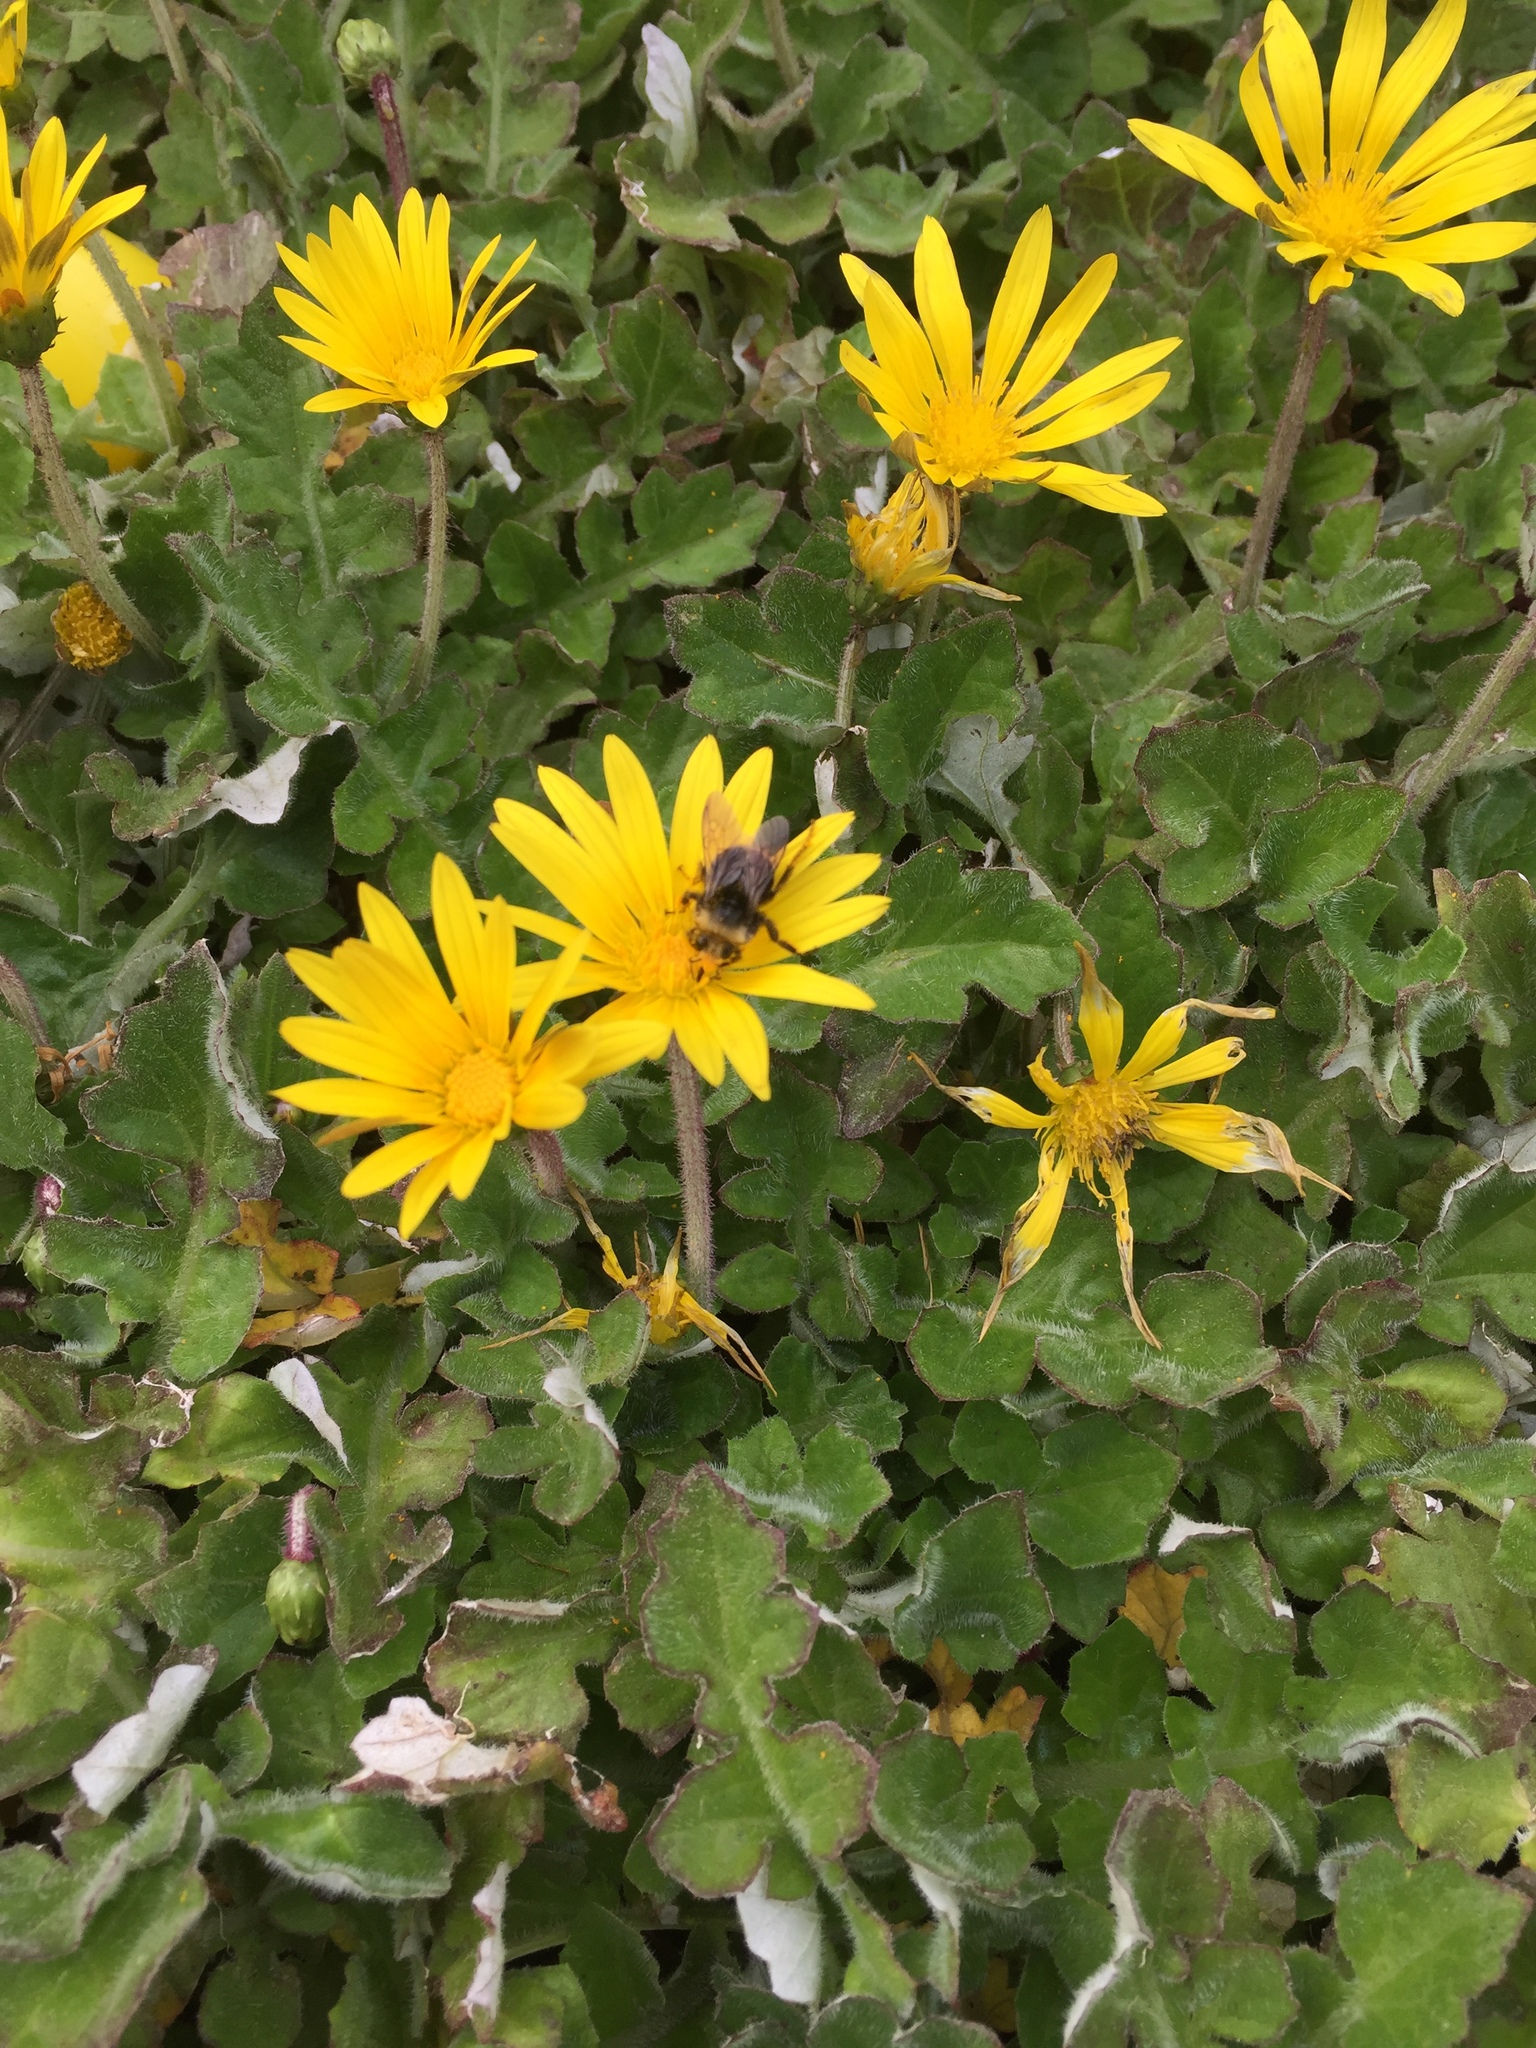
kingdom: Animalia
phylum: Arthropoda
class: Insecta
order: Hymenoptera
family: Apidae
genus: Pyrobombus
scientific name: Pyrobombus
